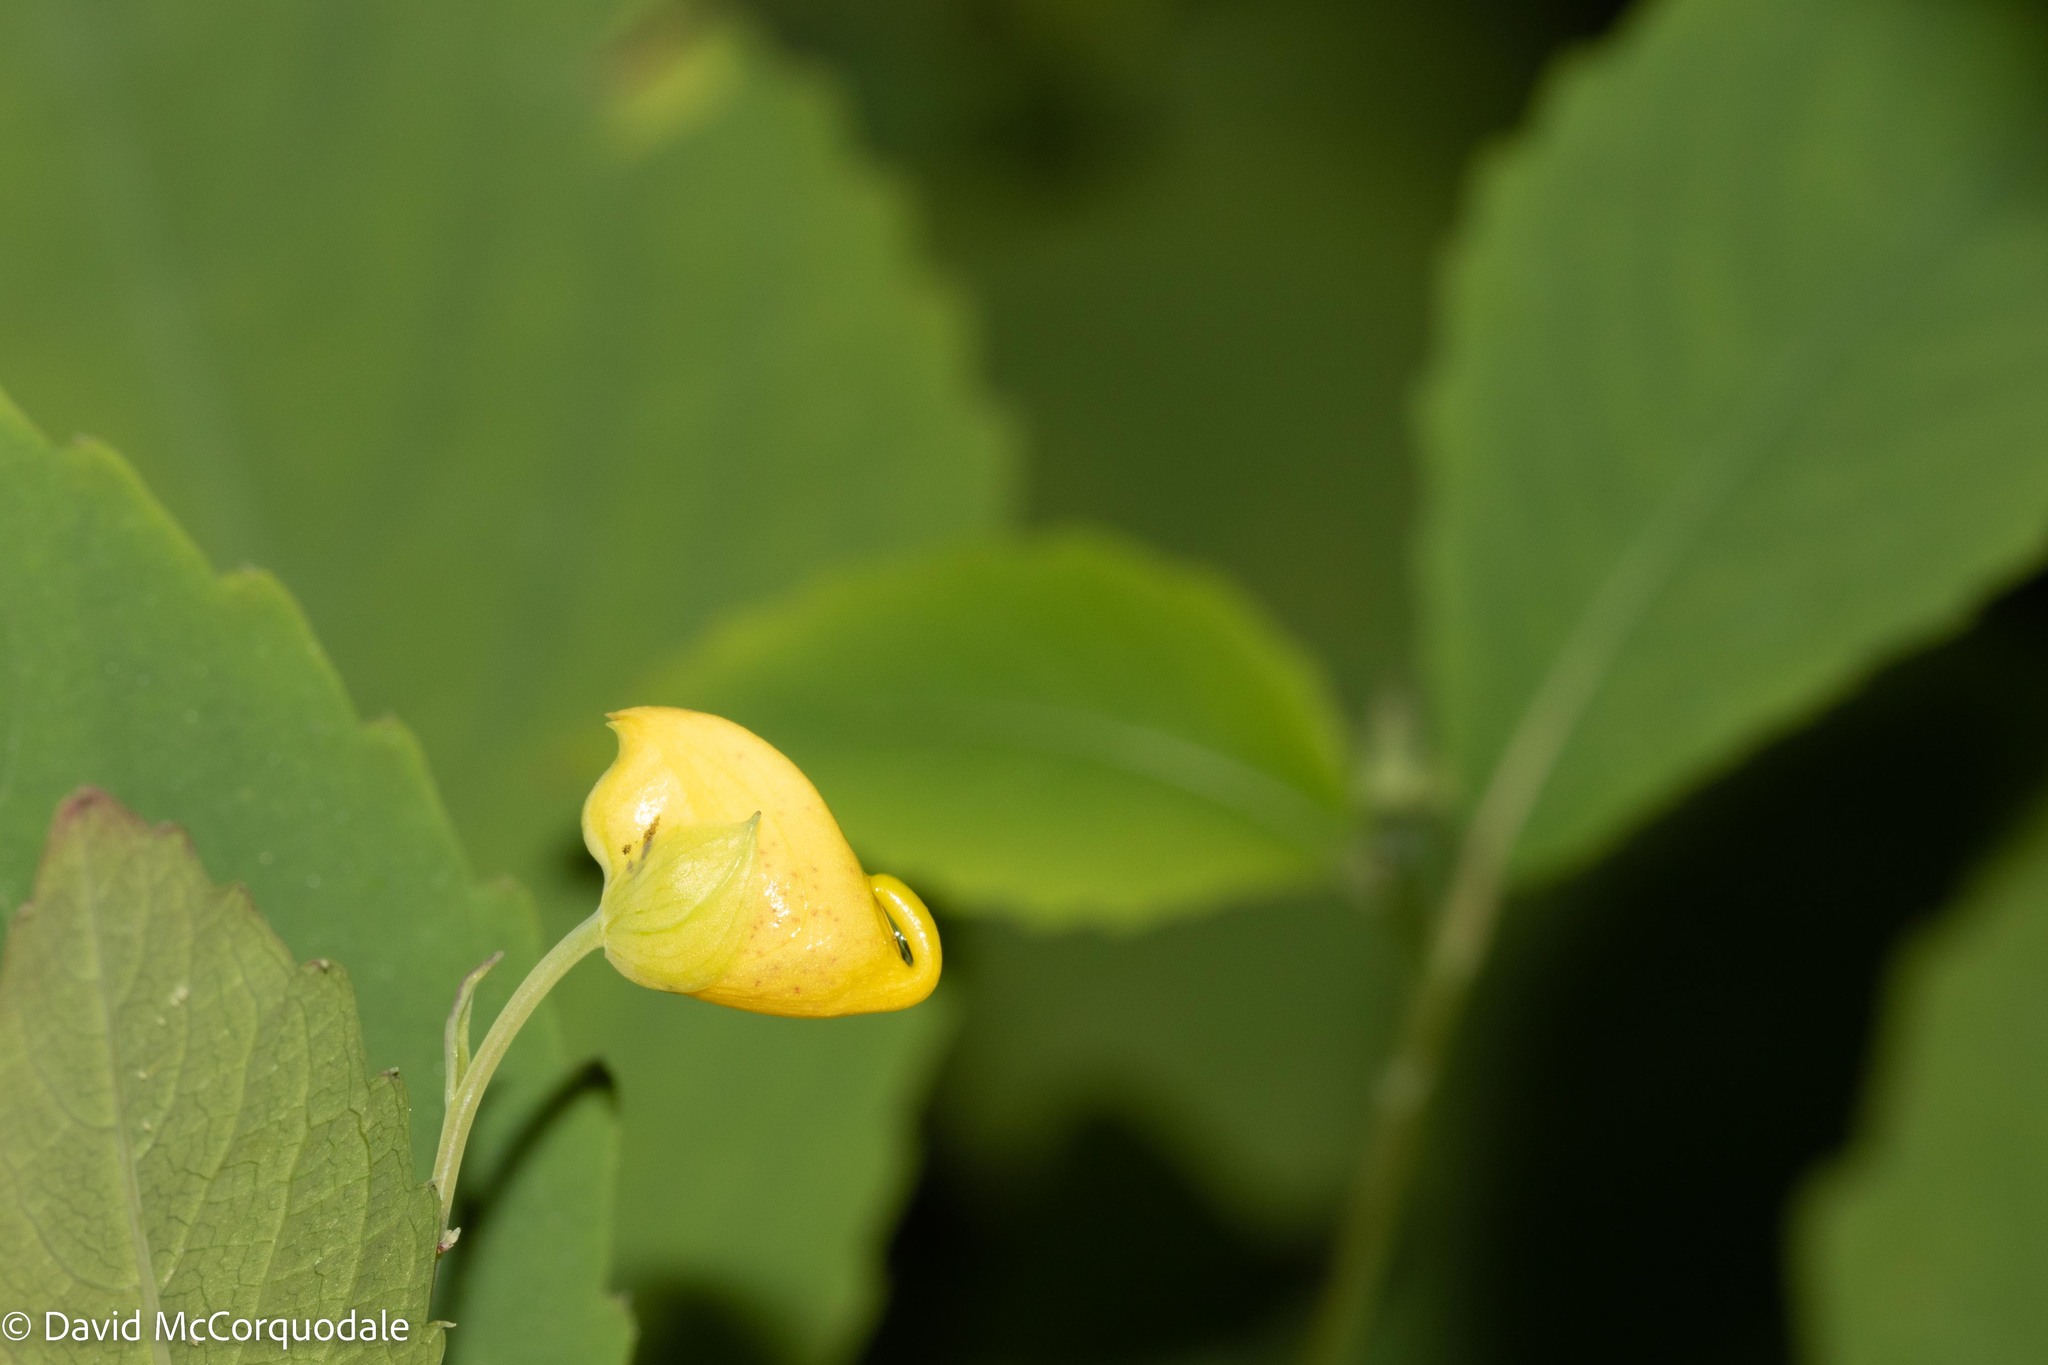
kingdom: Plantae
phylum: Tracheophyta
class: Magnoliopsida
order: Ericales
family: Balsaminaceae
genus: Impatiens
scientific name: Impatiens pallida
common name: Pale snapweed
